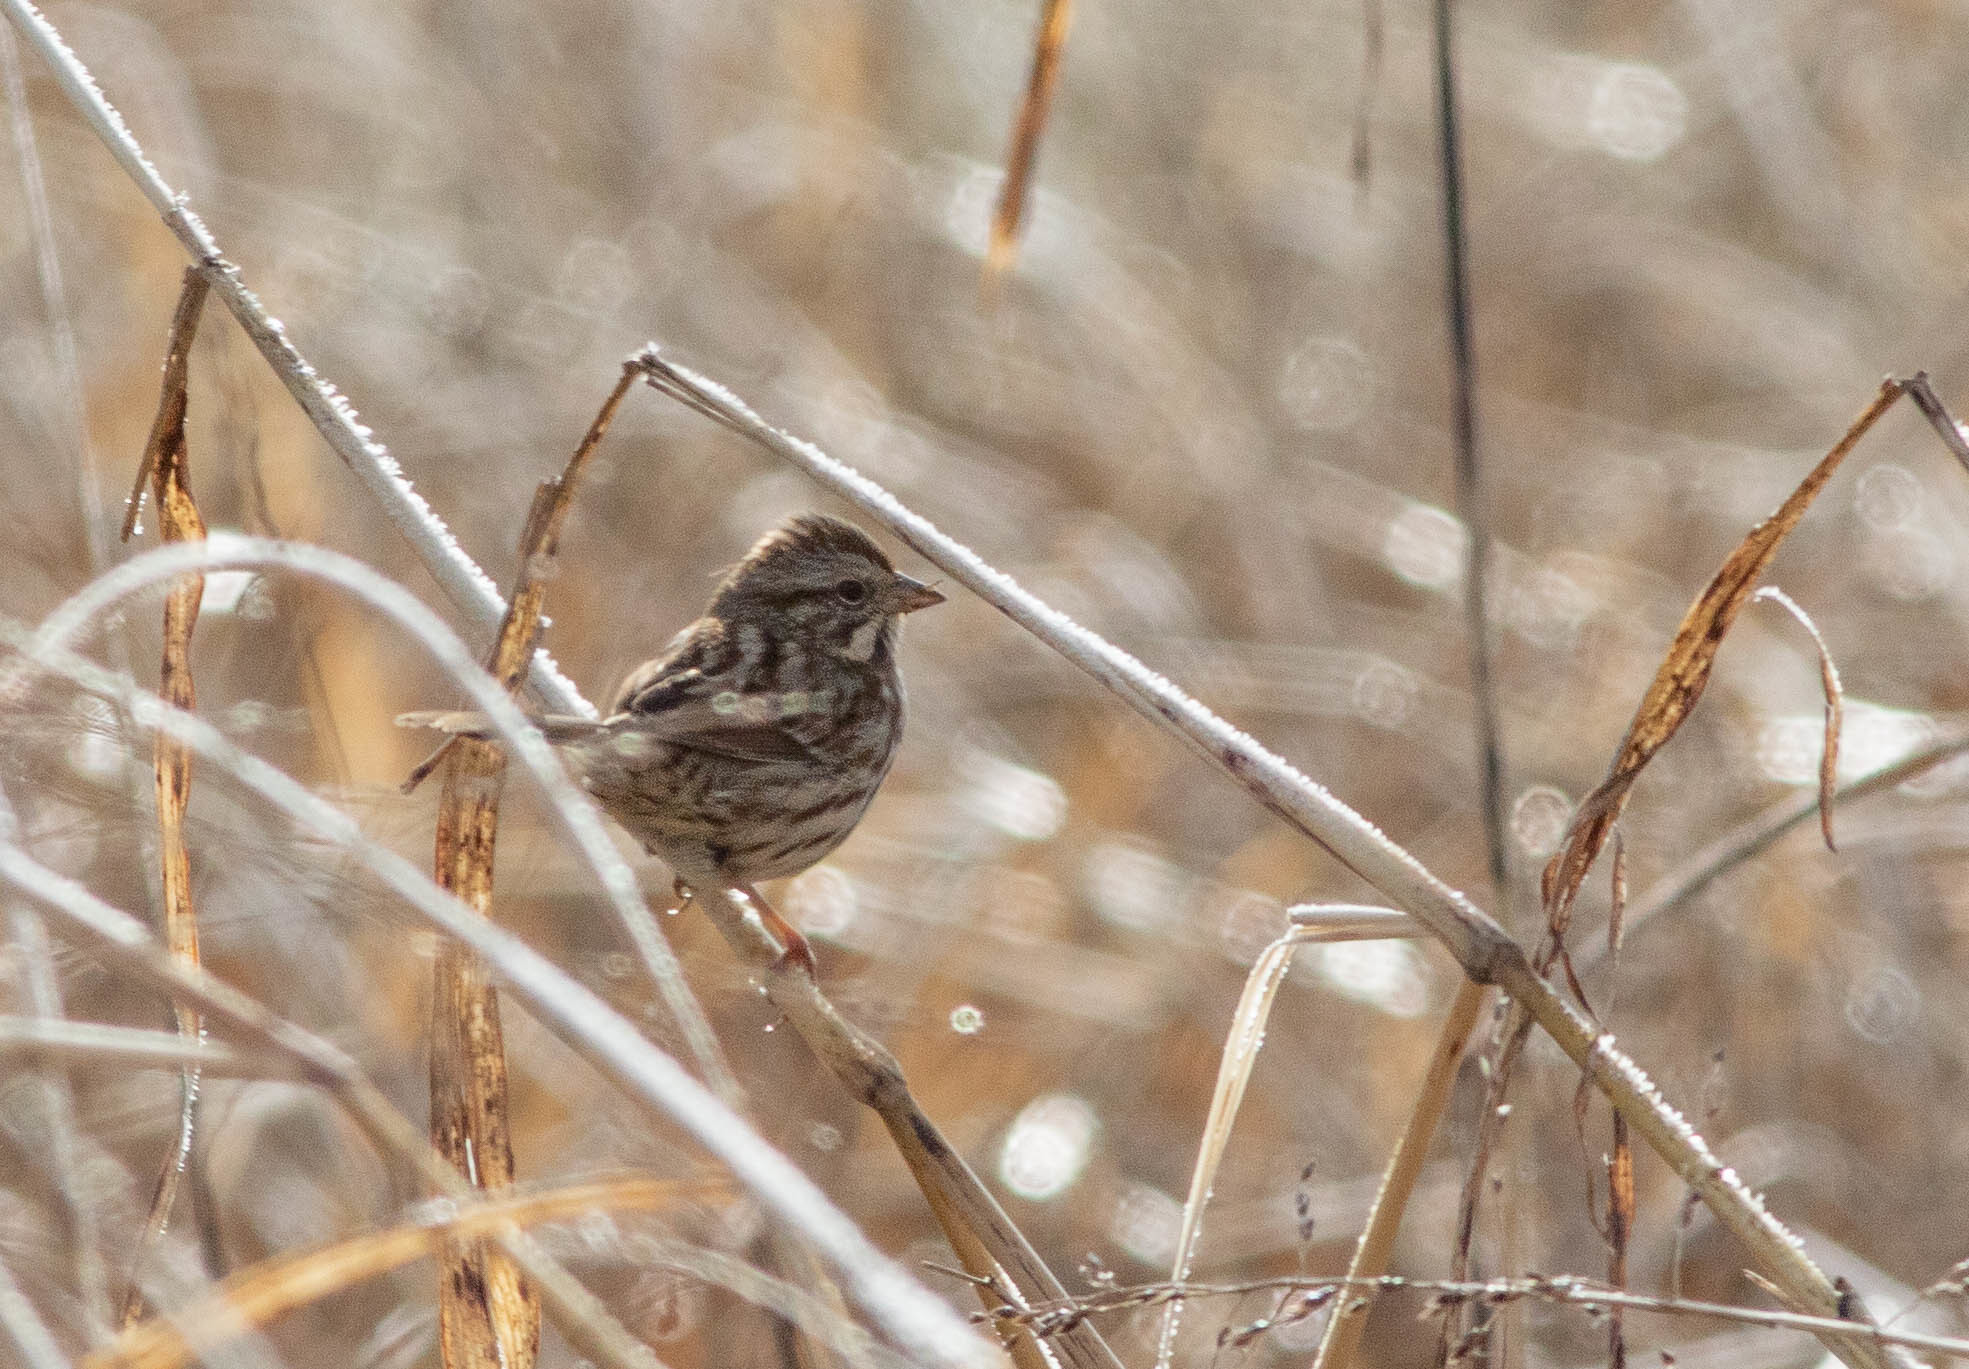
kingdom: Animalia
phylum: Chordata
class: Aves
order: Passeriformes
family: Passerellidae
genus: Melospiza
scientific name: Melospiza melodia
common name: Song sparrow
